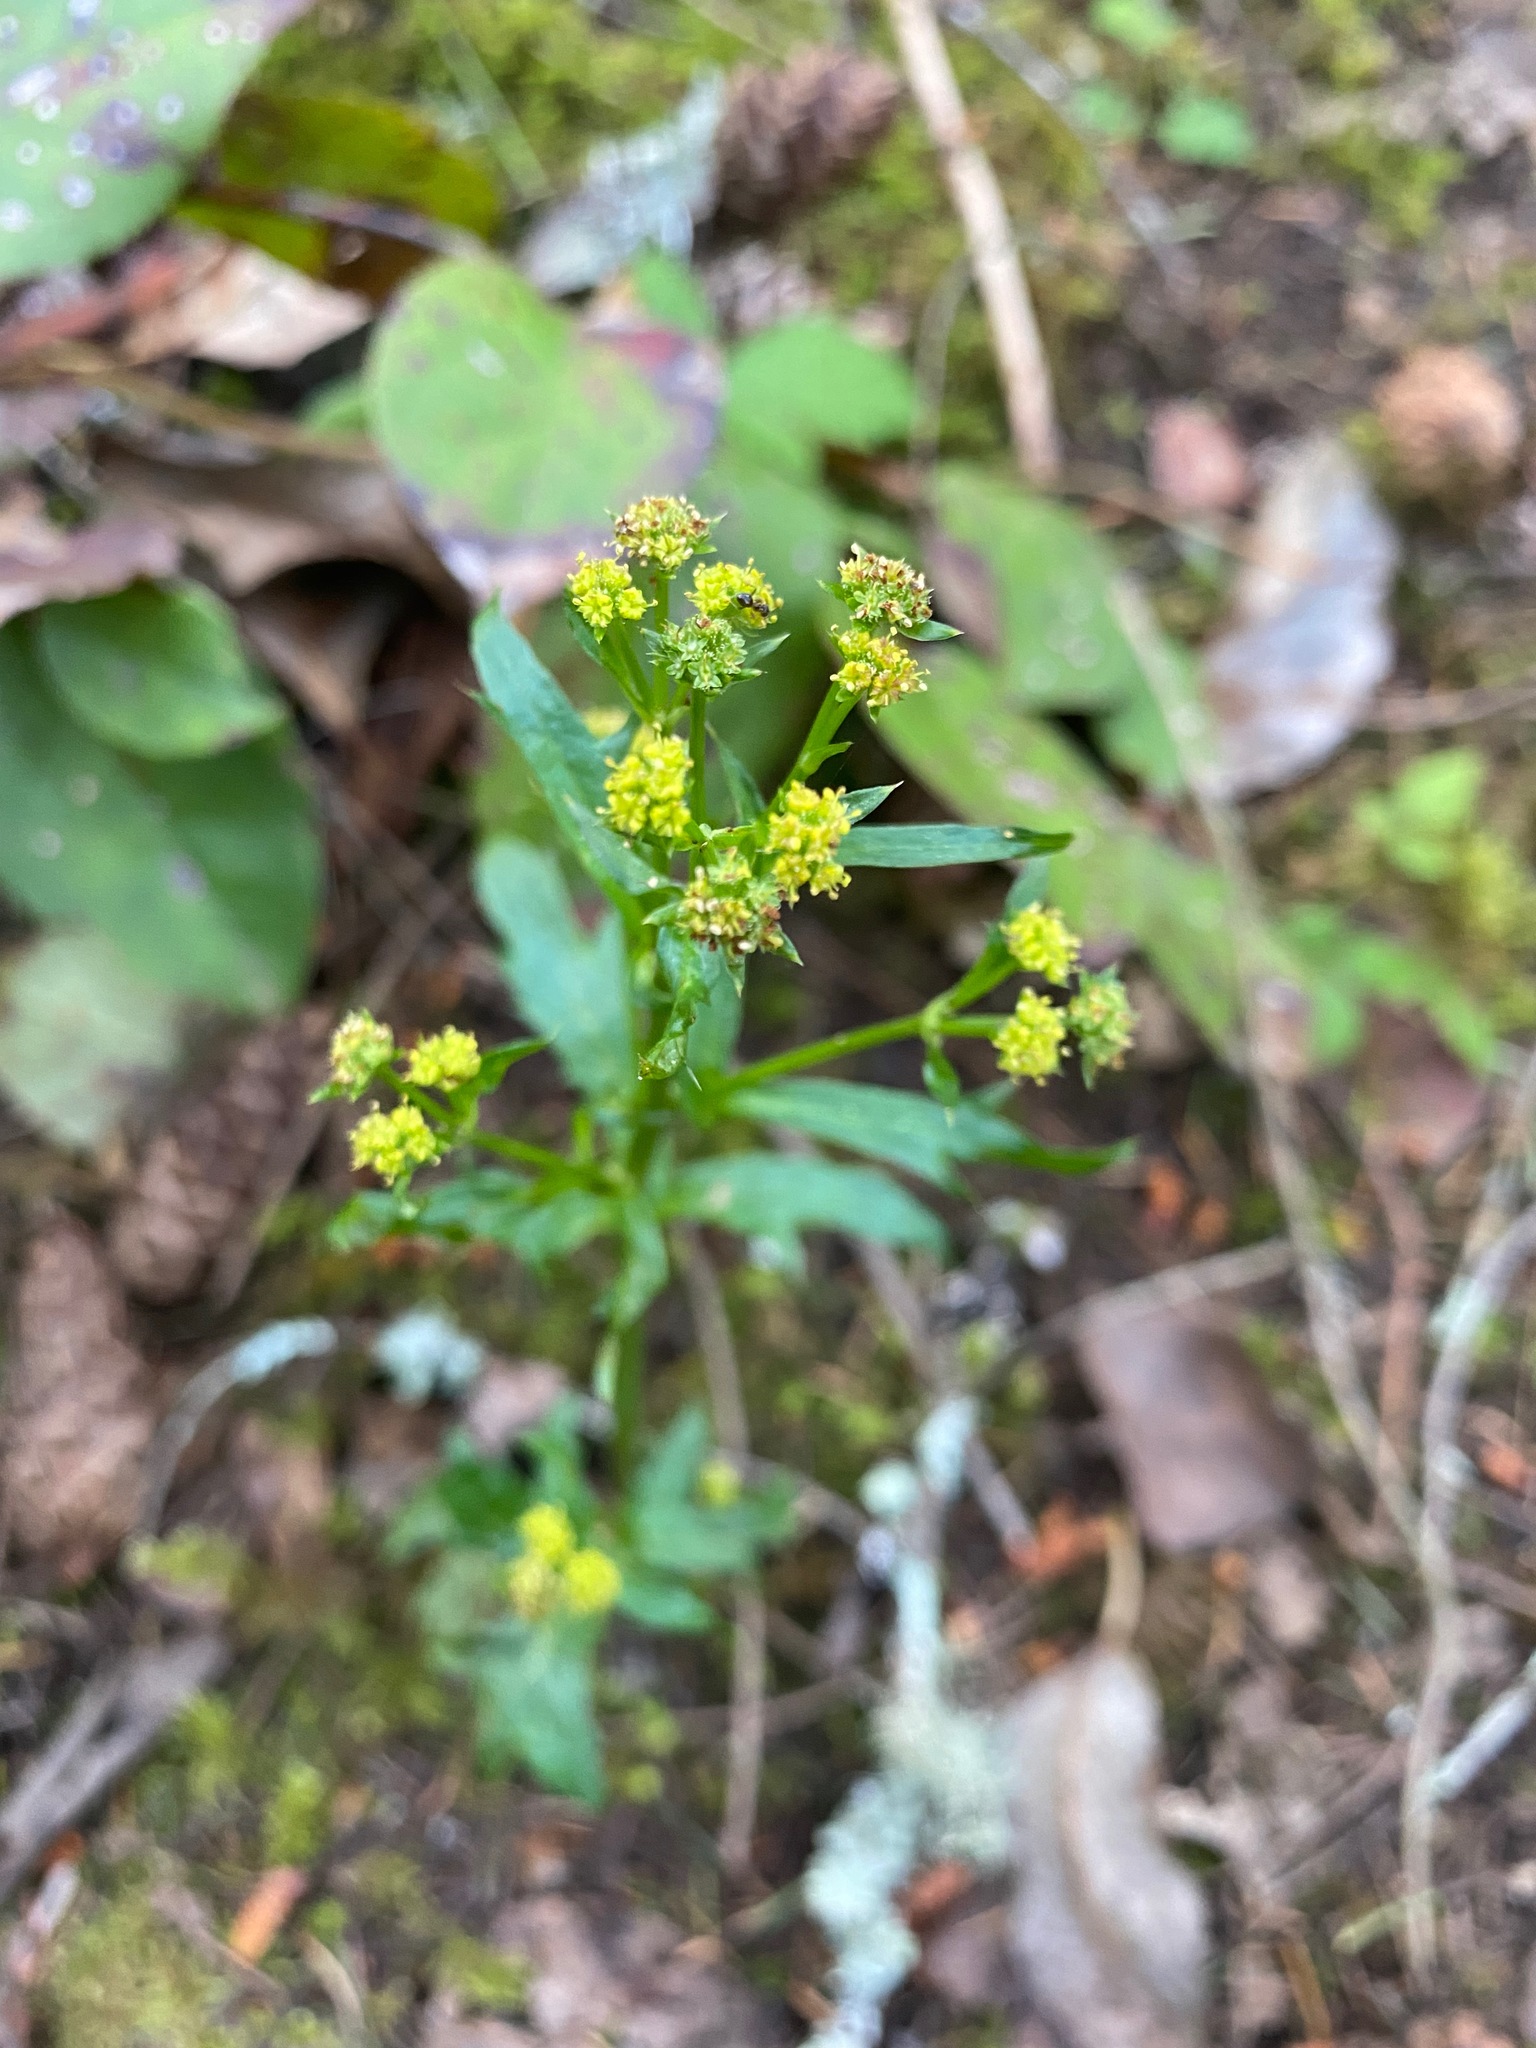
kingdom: Plantae
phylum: Tracheophyta
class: Magnoliopsida
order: Apiales
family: Apiaceae
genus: Sanicula
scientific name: Sanicula crassicaulis
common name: Western snakeroot
